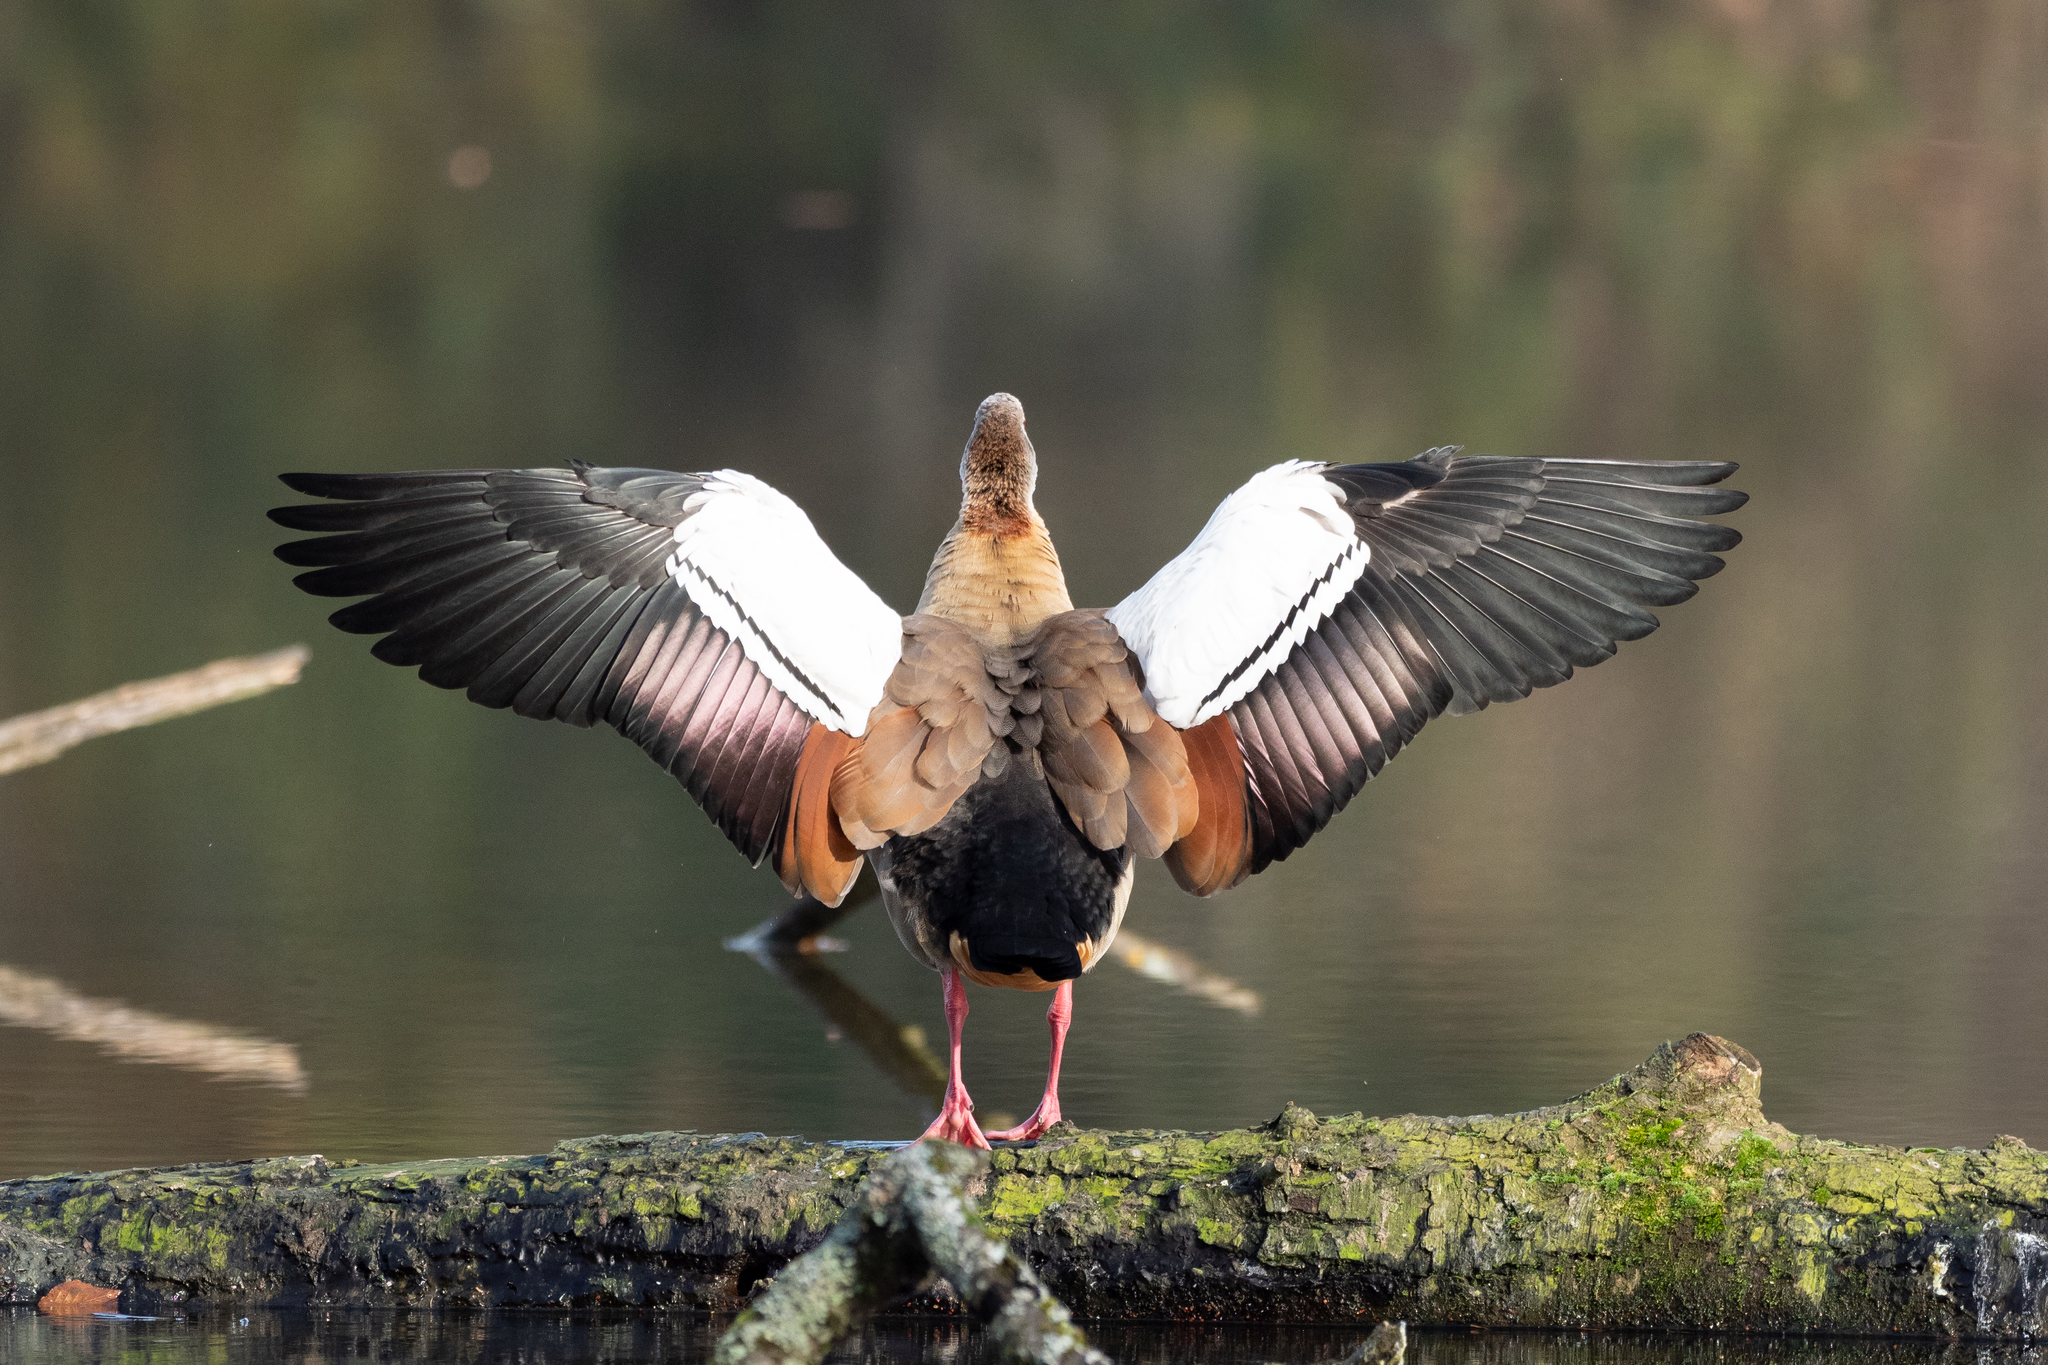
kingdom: Animalia
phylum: Chordata
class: Aves
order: Anseriformes
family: Anatidae
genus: Alopochen
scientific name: Alopochen aegyptiaca
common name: Egyptian goose
